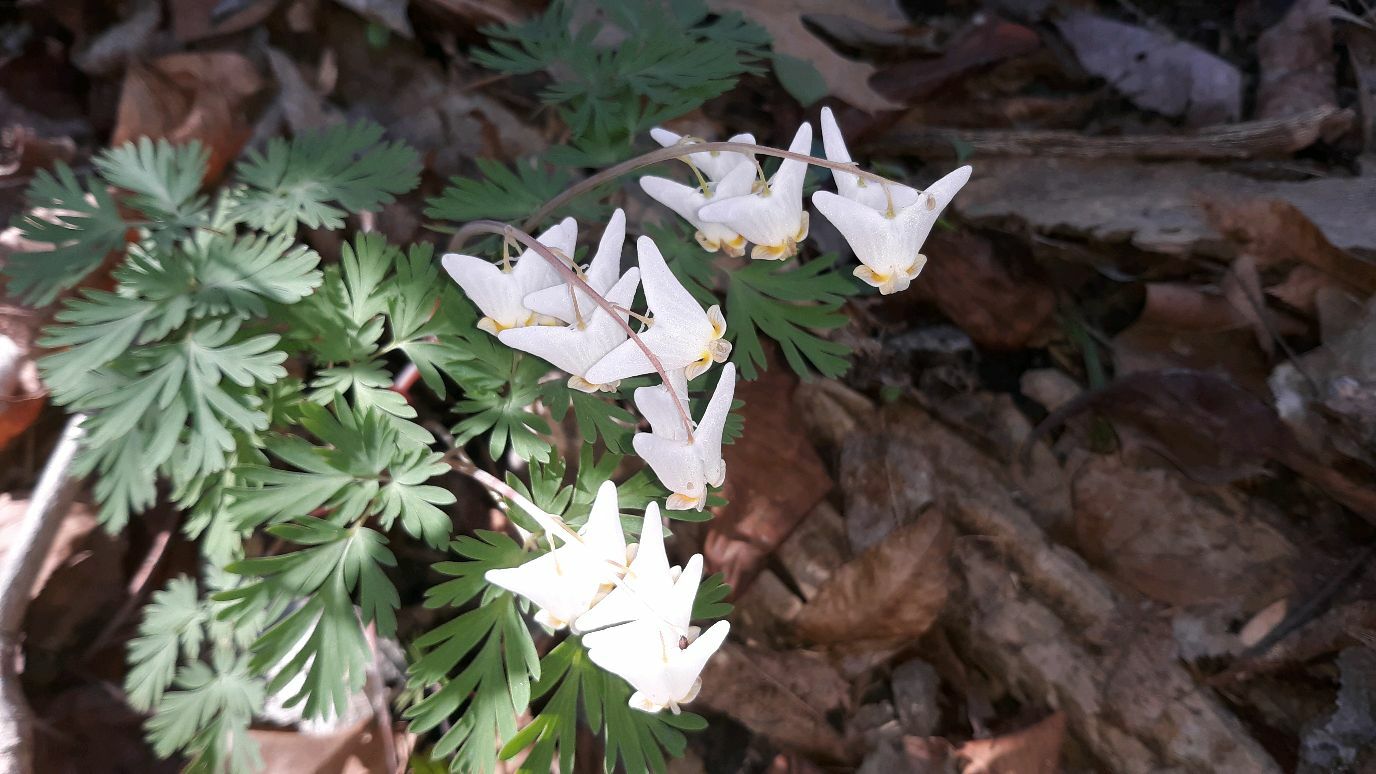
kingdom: Plantae
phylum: Tracheophyta
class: Magnoliopsida
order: Ranunculales
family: Papaveraceae
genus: Dicentra
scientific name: Dicentra cucullaria
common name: Dutchman's breeches
